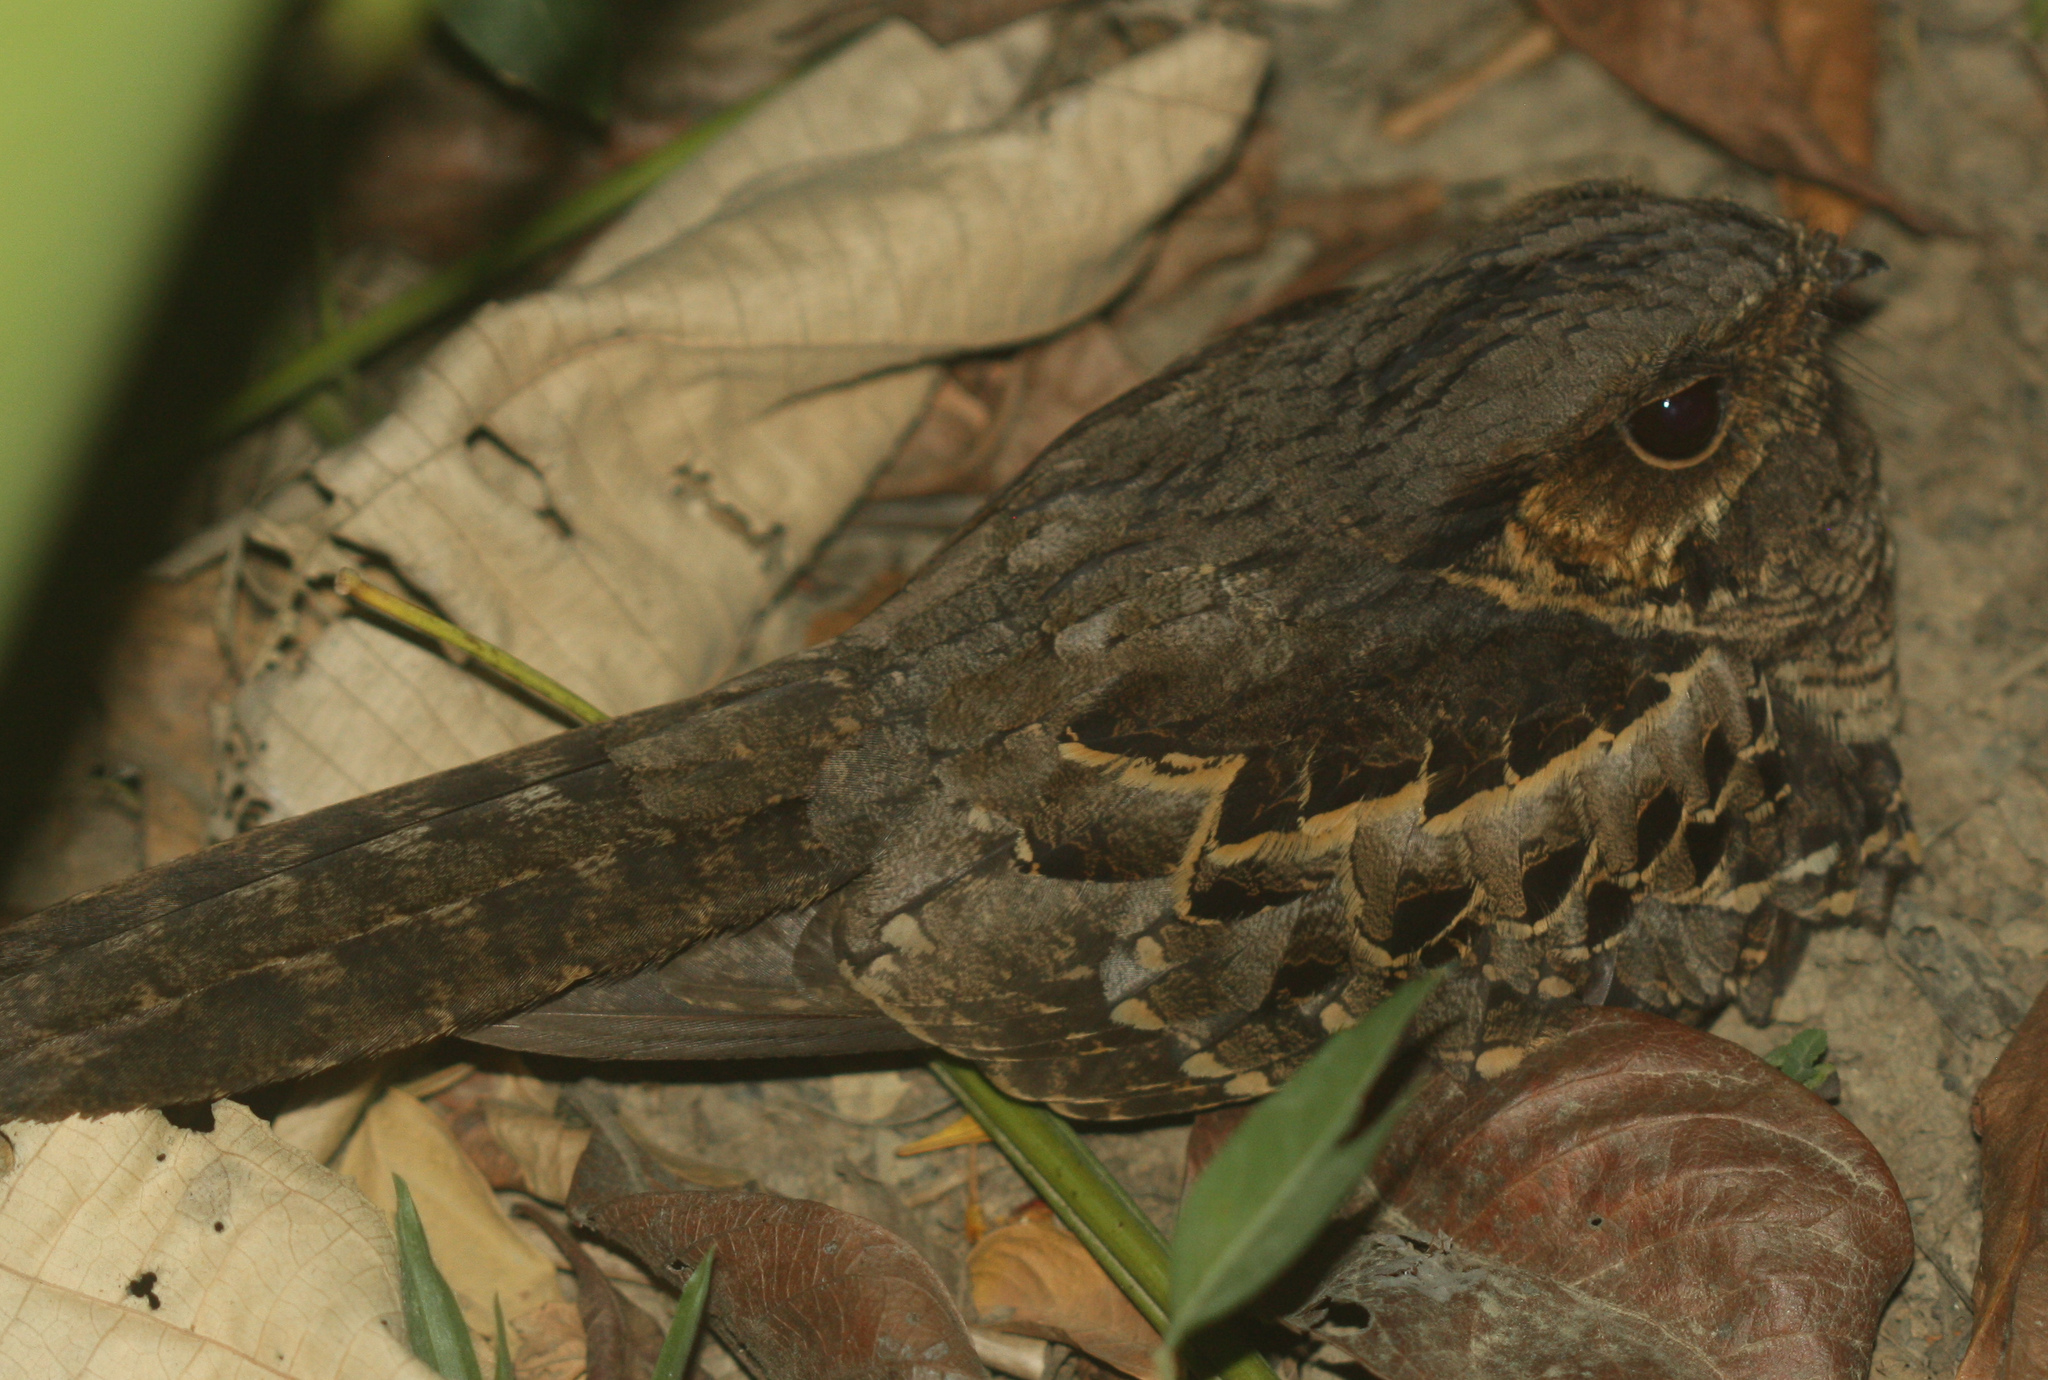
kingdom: Animalia
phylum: Chordata
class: Aves
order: Caprimulgiformes
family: Caprimulgidae
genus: Nyctidromus
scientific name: Nyctidromus albicollis
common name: Pauraque
